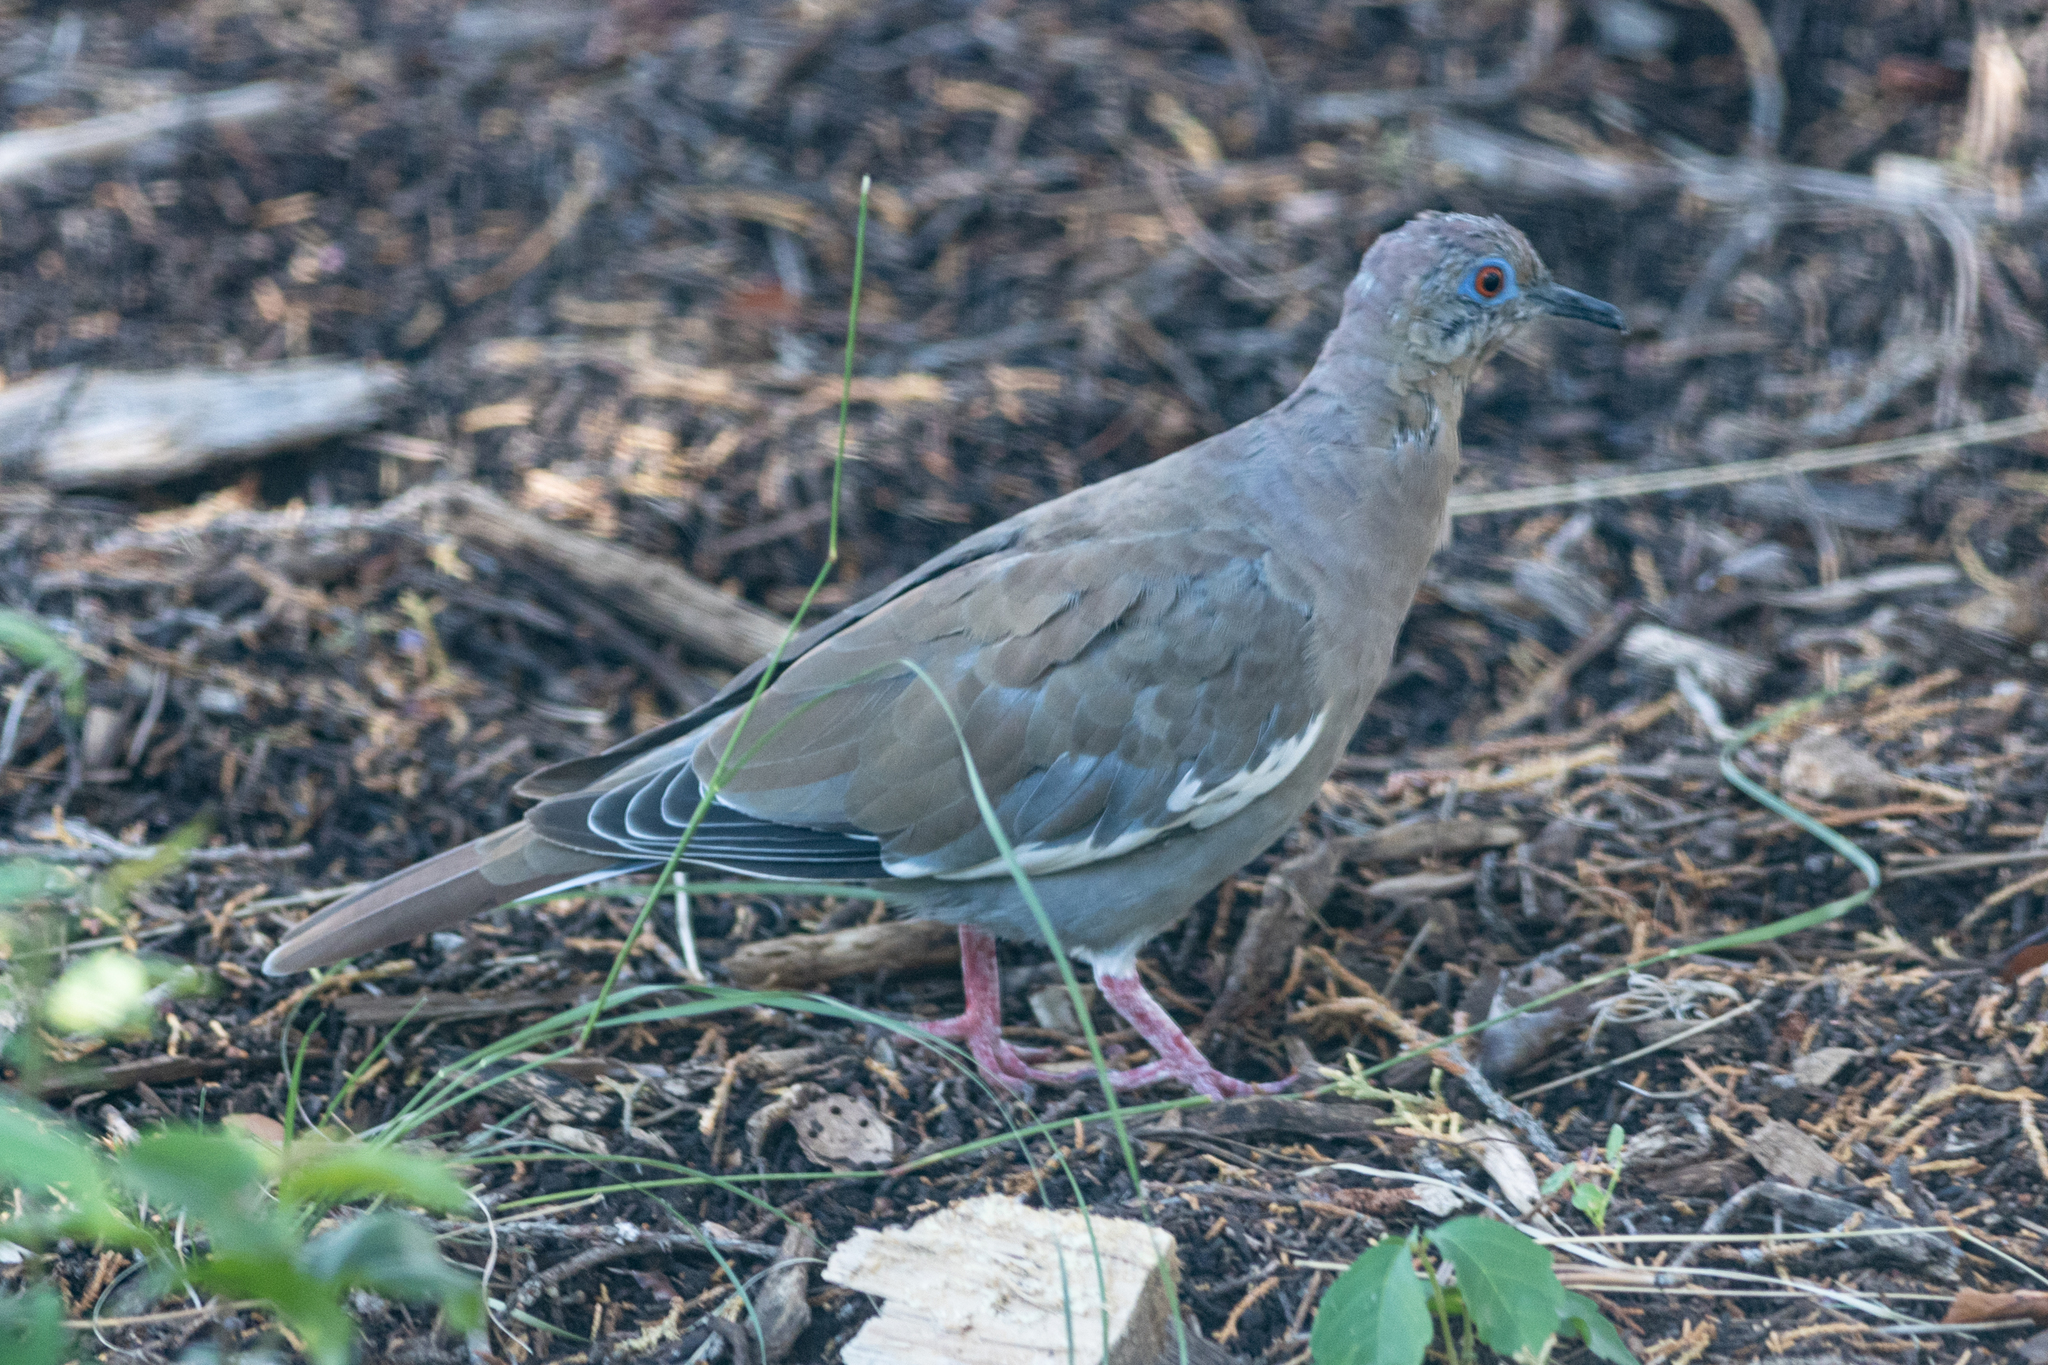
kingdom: Animalia
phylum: Chordata
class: Aves
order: Columbiformes
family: Columbidae
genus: Zenaida
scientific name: Zenaida asiatica
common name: White-winged dove
